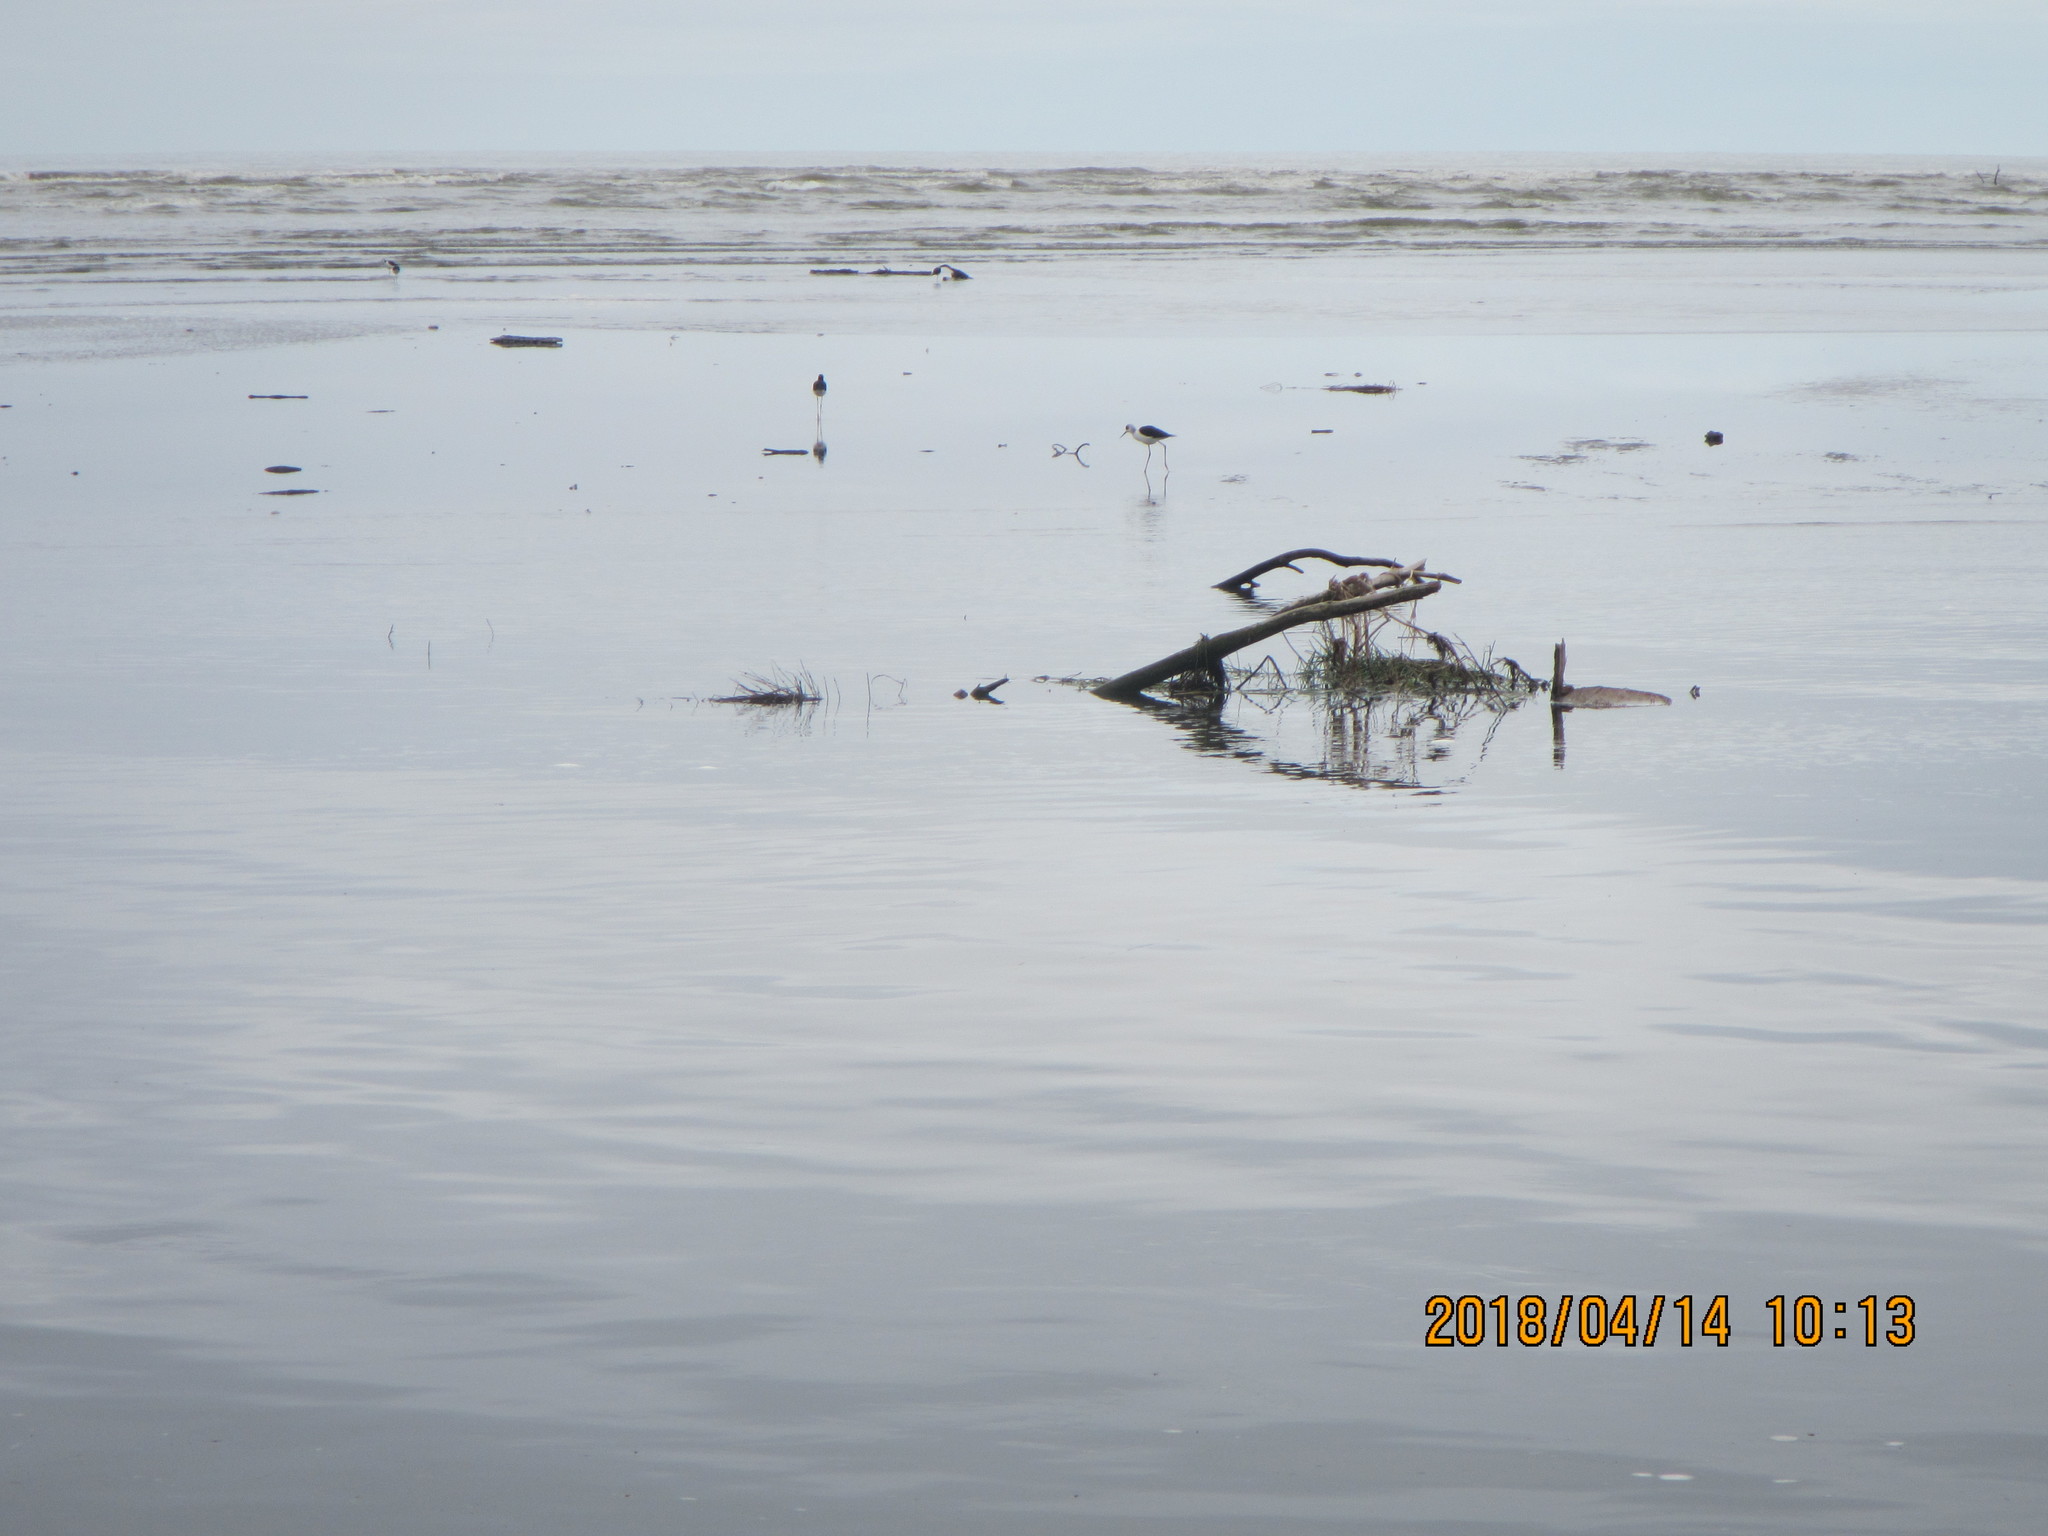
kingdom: Animalia
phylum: Chordata
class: Aves
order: Charadriiformes
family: Recurvirostridae
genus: Himantopus
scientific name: Himantopus leucocephalus
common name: White-headed stilt
